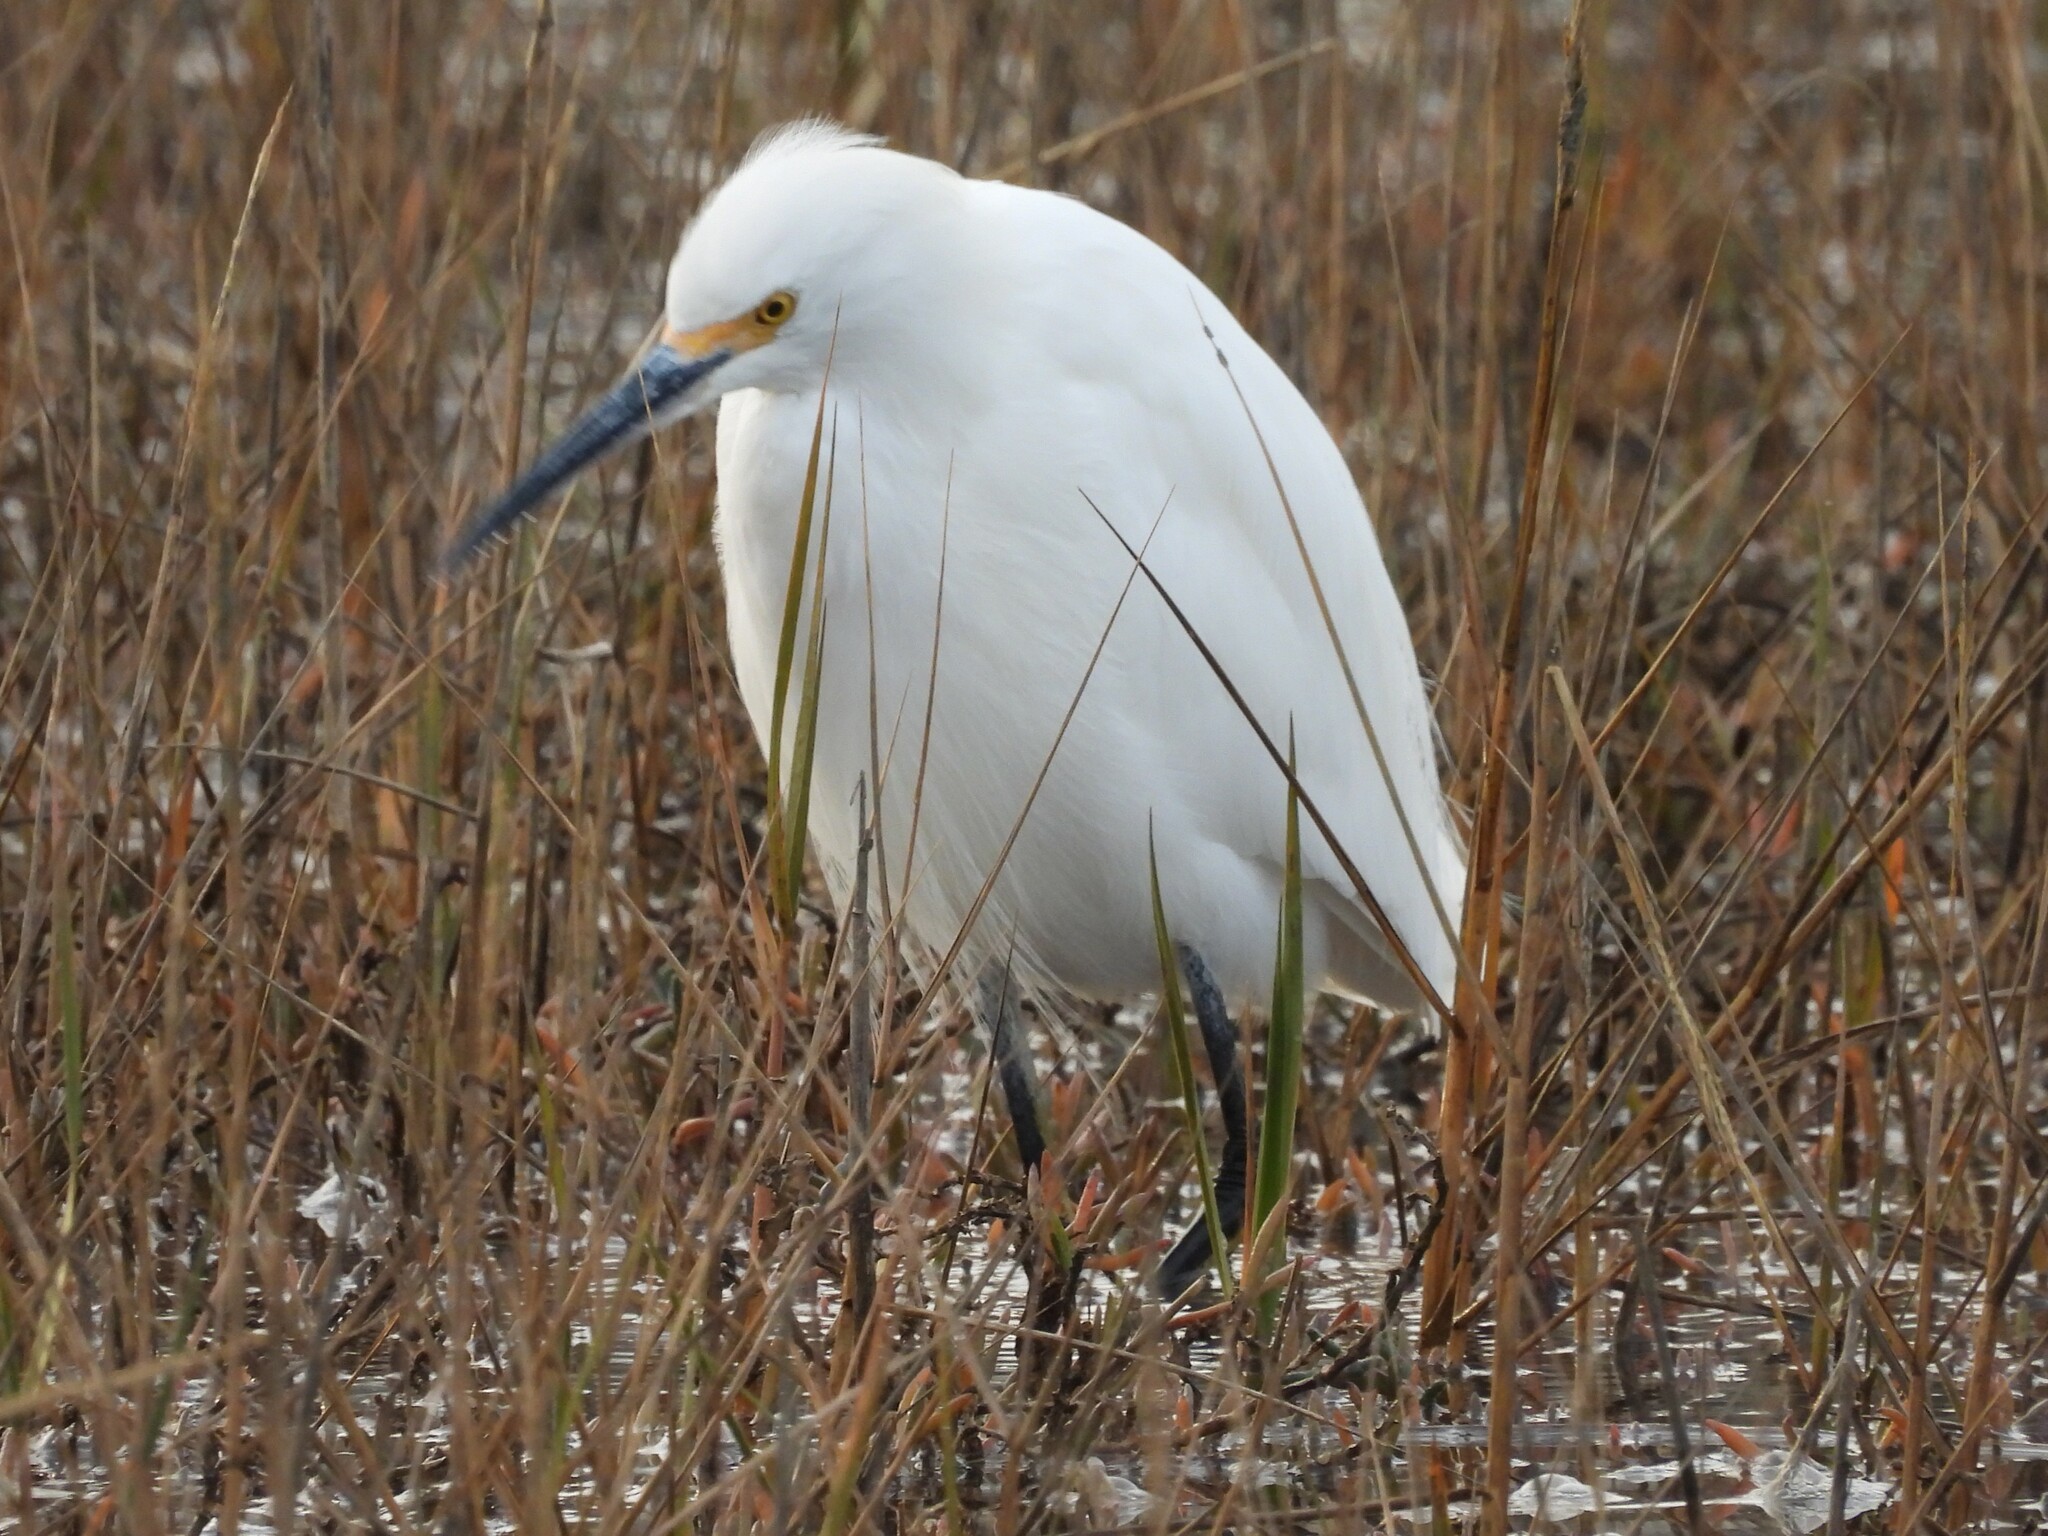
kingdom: Animalia
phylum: Chordata
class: Aves
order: Pelecaniformes
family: Ardeidae
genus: Egretta
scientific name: Egretta thula
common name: Snowy egret
